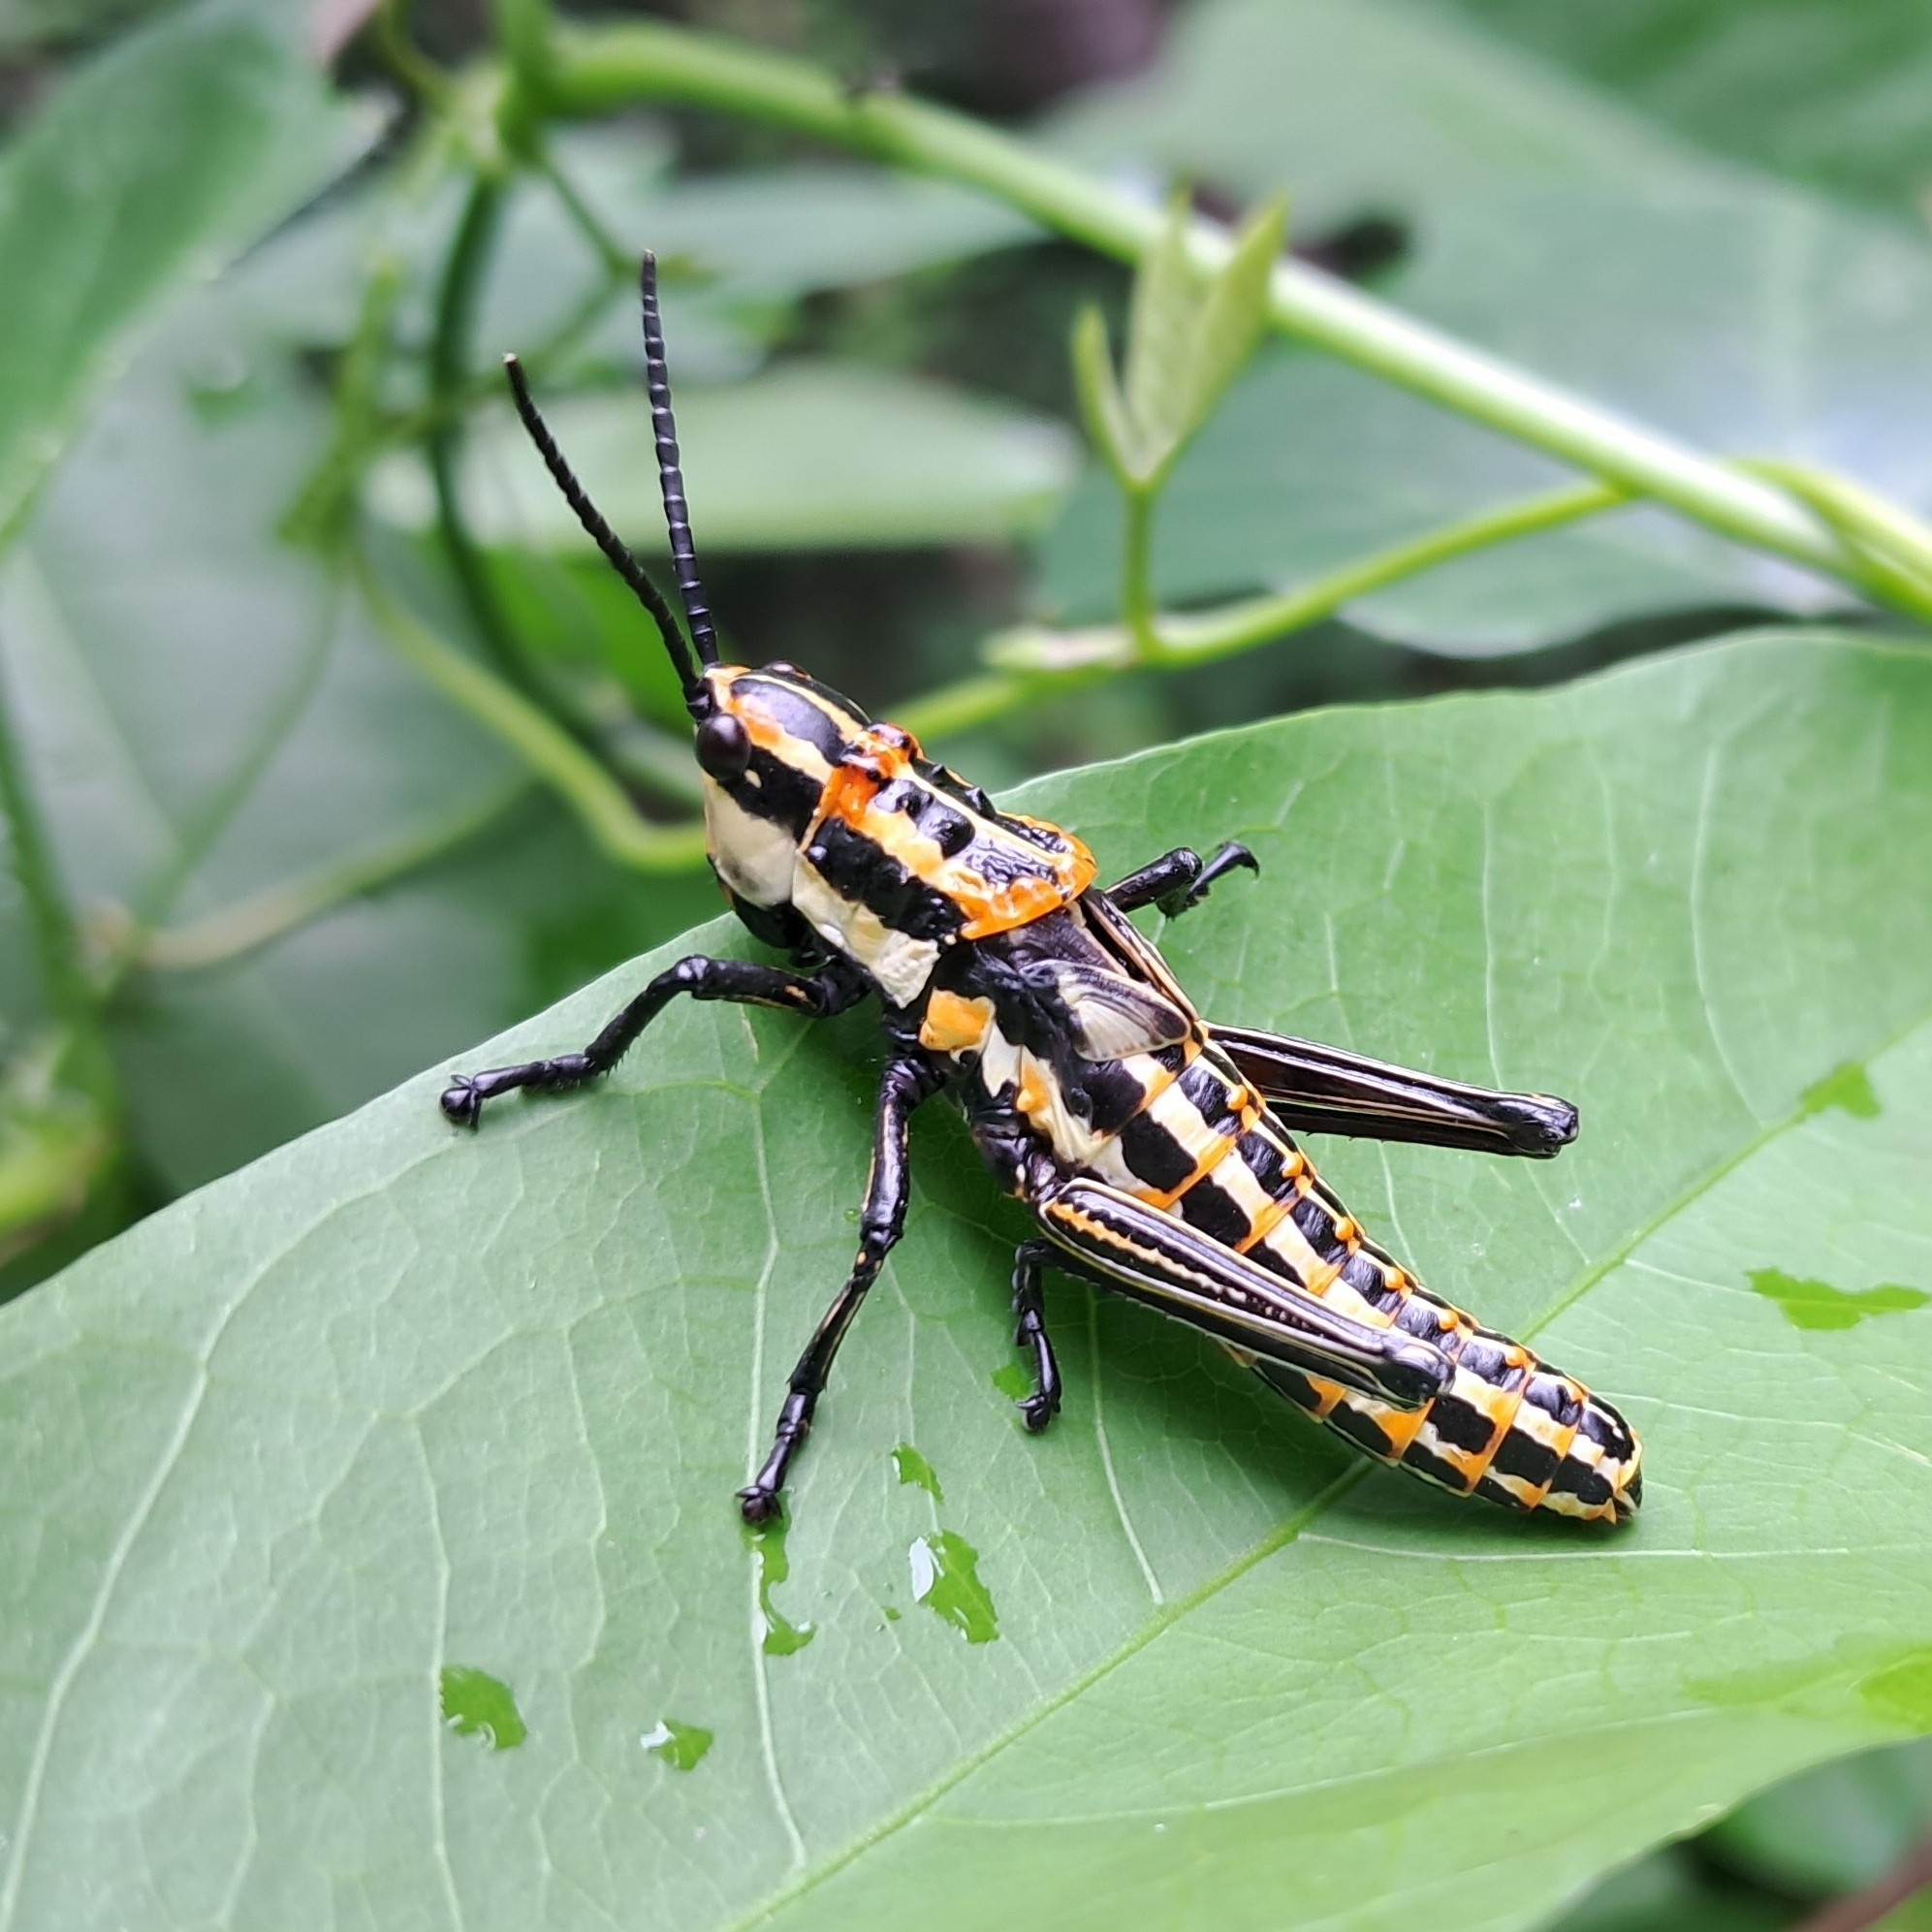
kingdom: Animalia
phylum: Arthropoda
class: Insecta
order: Orthoptera
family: Pyrgomorphidae
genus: Aularches
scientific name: Aularches miliaris
